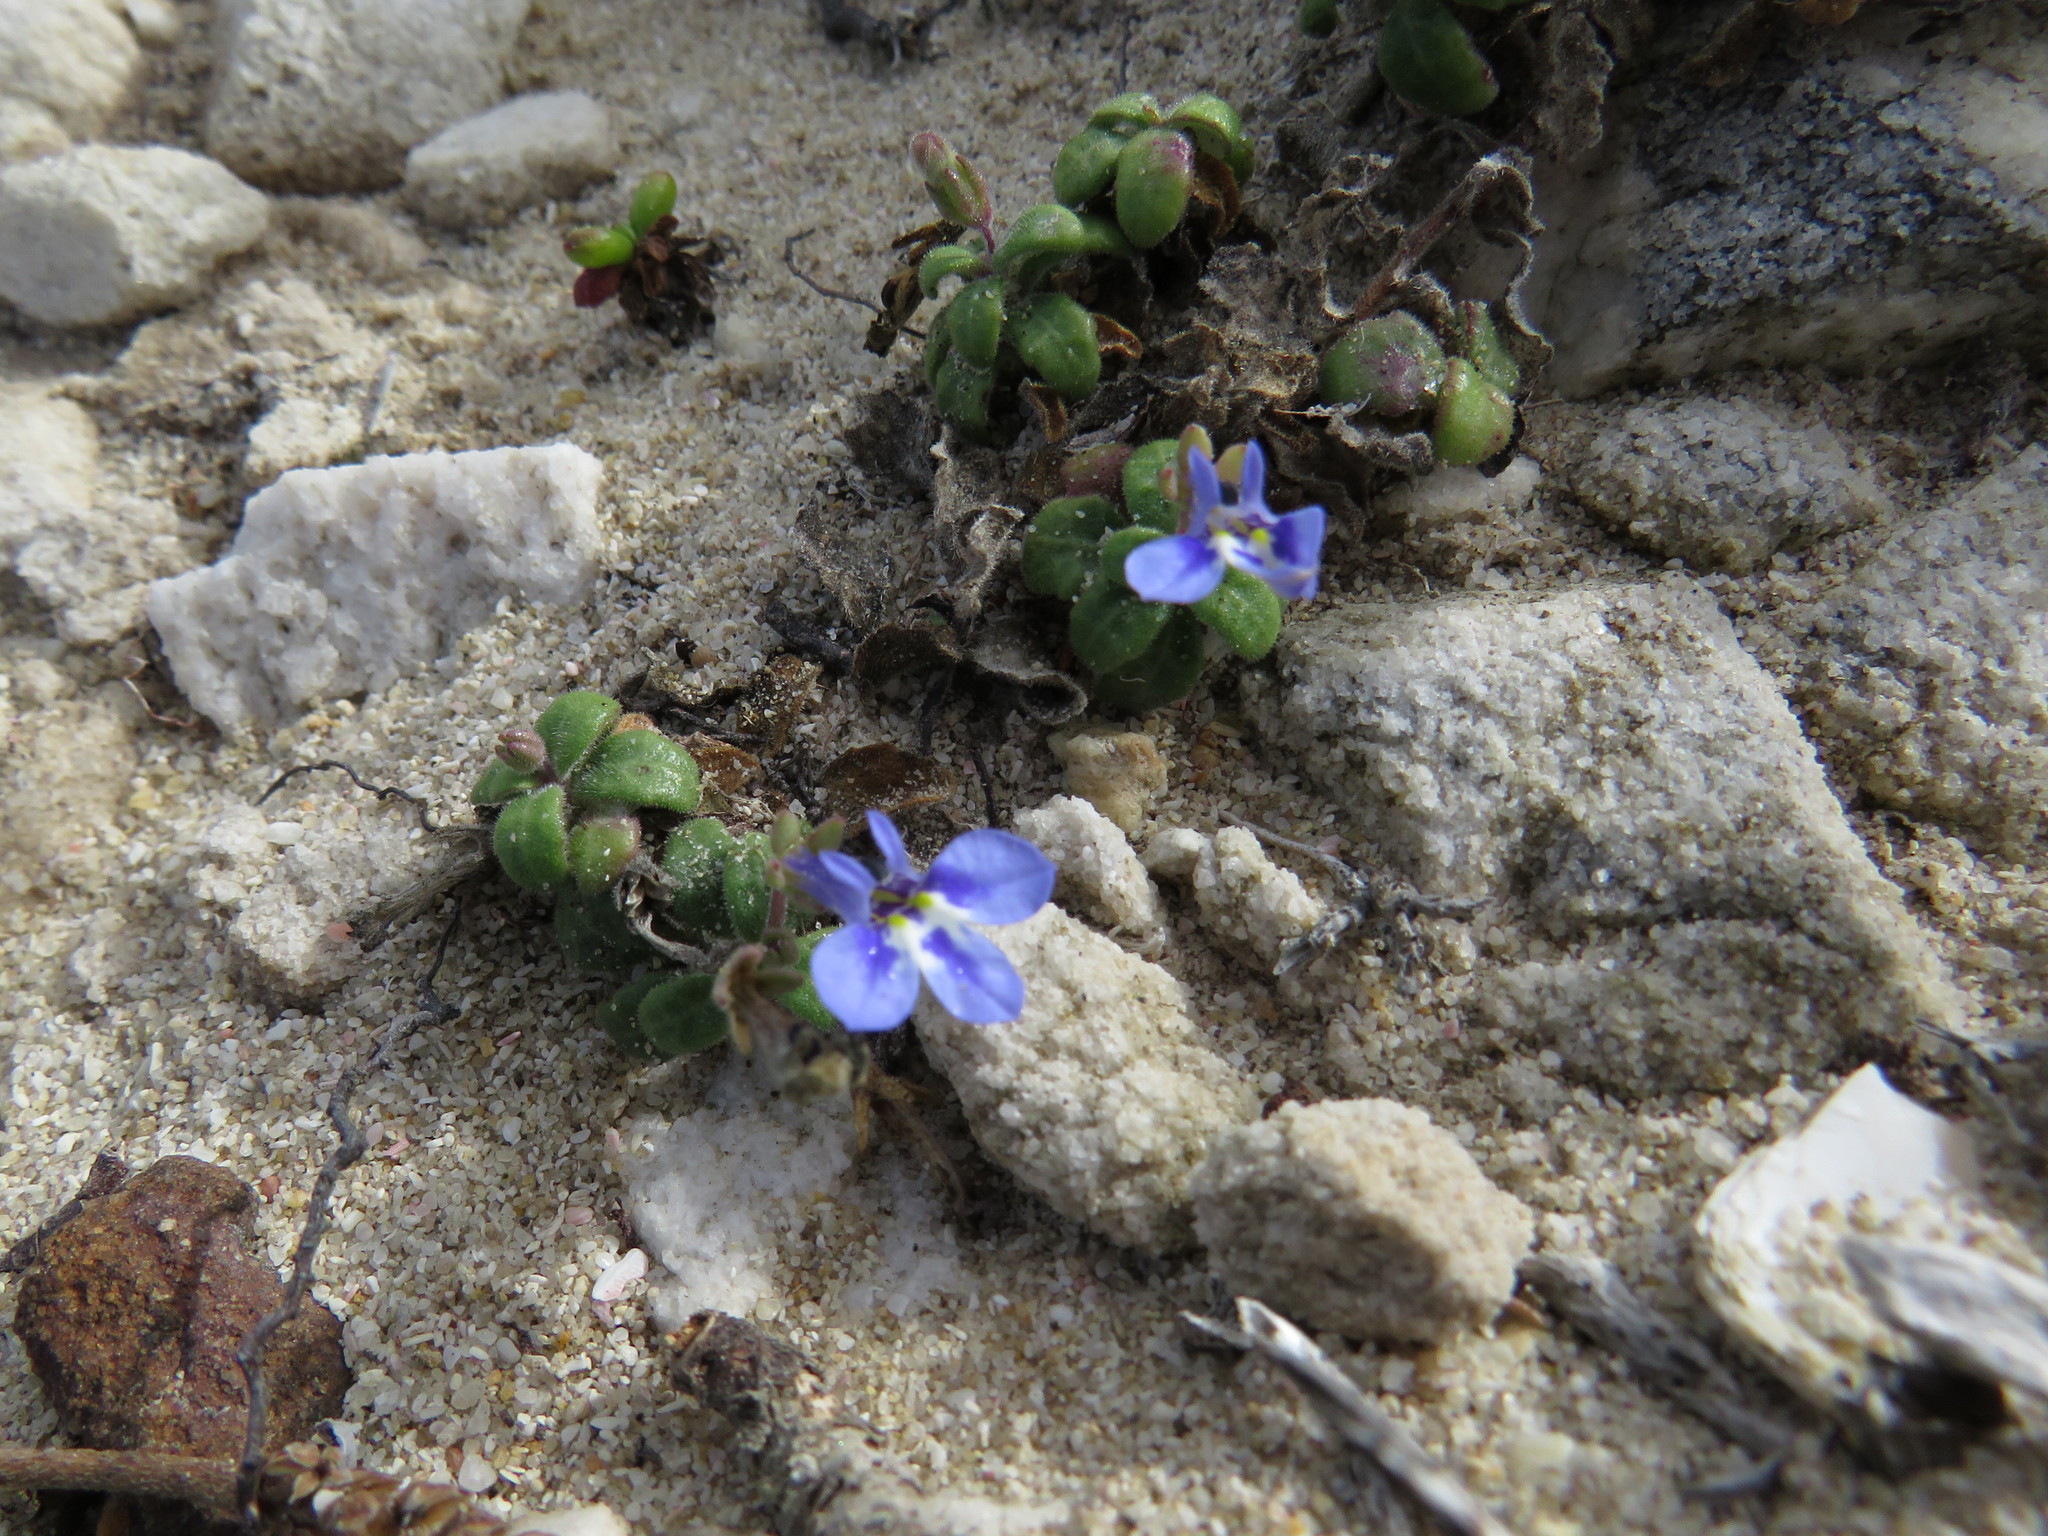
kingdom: Plantae
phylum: Tracheophyta
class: Magnoliopsida
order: Asterales
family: Campanulaceae
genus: Lobelia
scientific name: Lobelia boivinii
